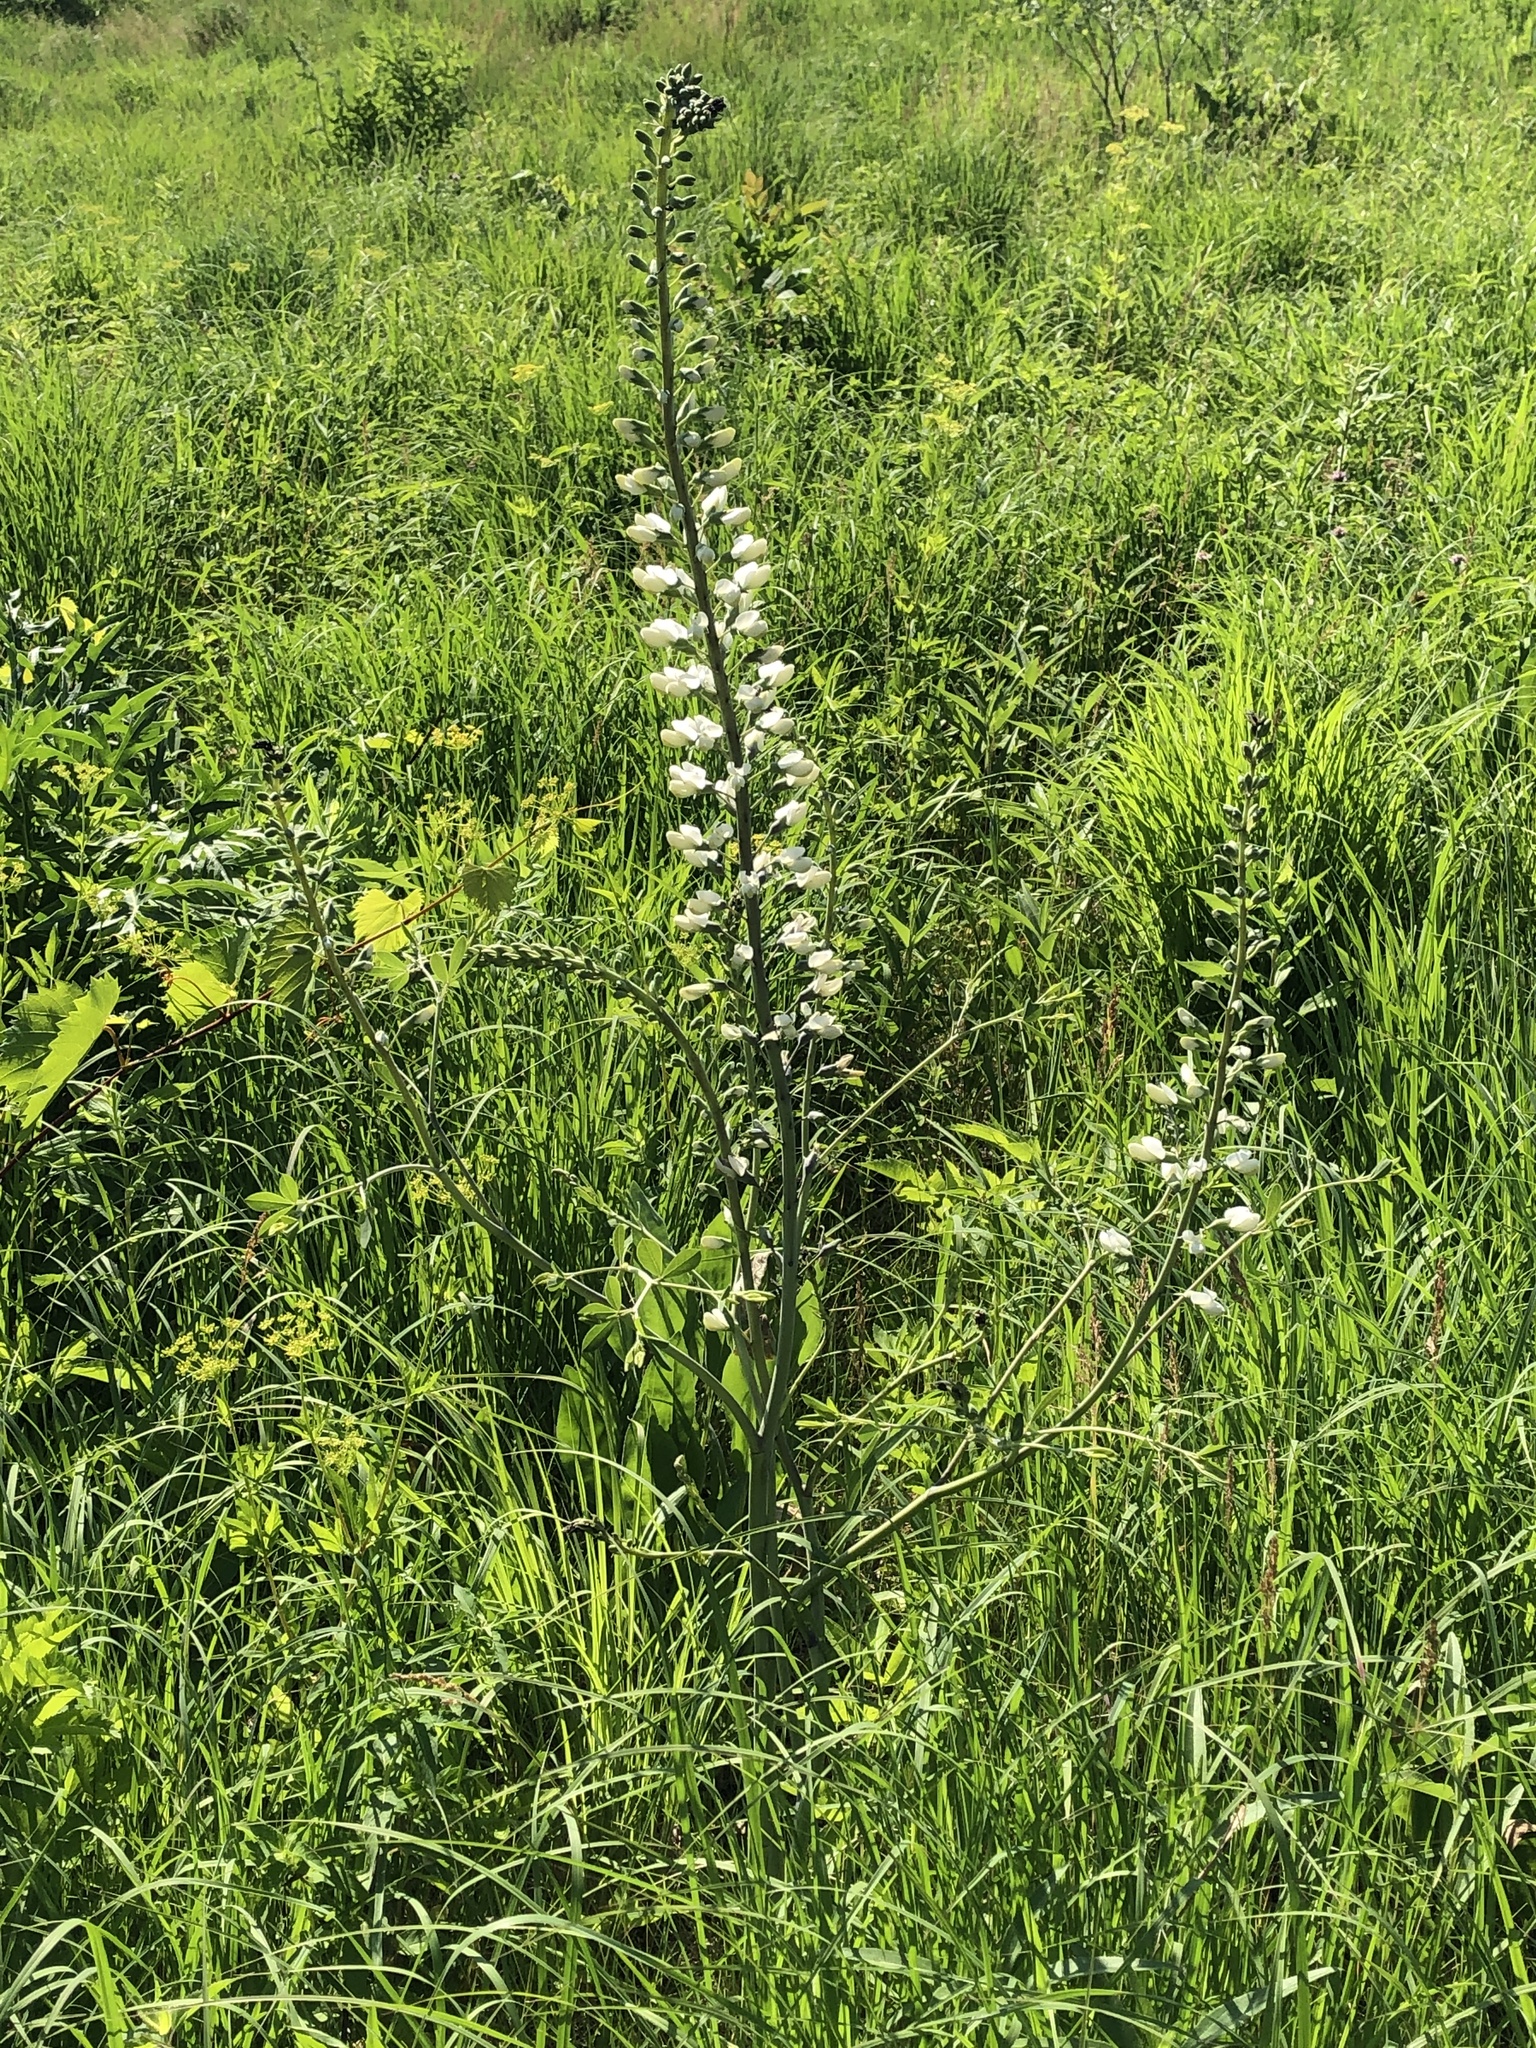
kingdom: Plantae
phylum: Tracheophyta
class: Magnoliopsida
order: Fabales
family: Fabaceae
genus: Baptisia
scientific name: Baptisia alba
